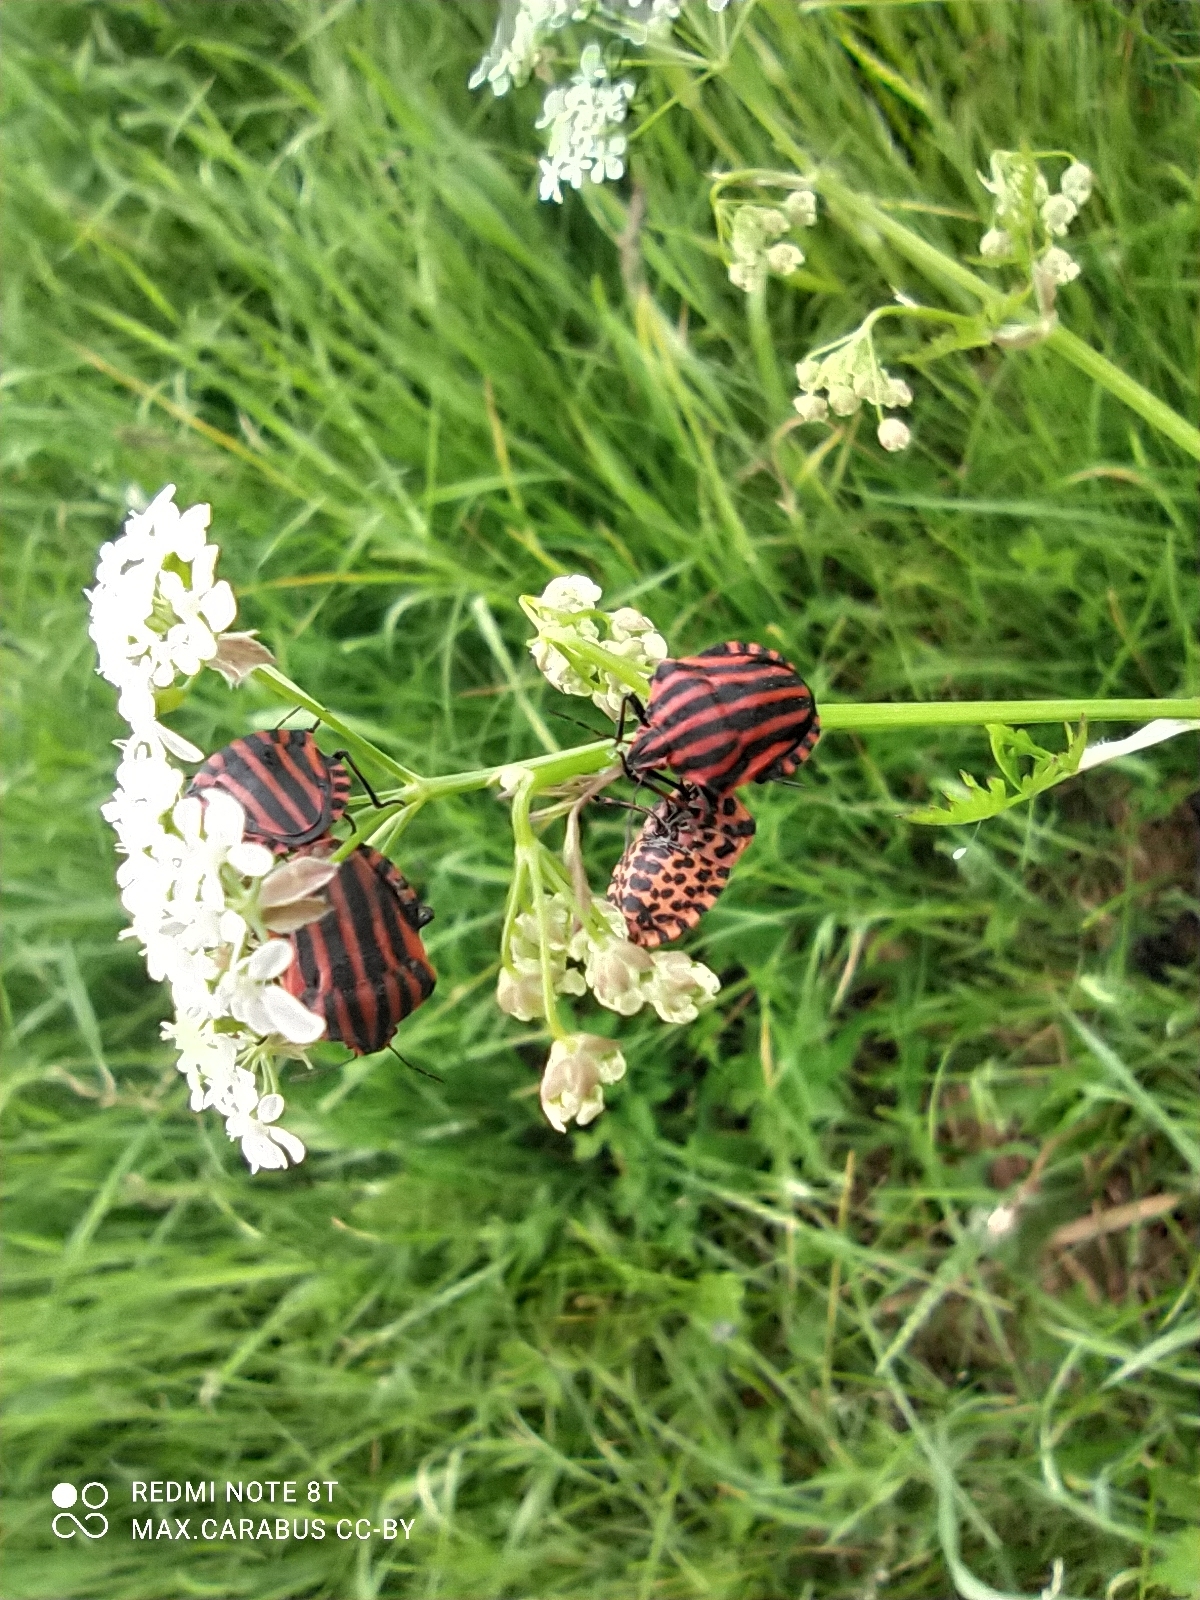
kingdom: Animalia
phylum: Arthropoda
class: Insecta
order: Hemiptera
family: Pentatomidae
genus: Graphosoma
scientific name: Graphosoma italicum
